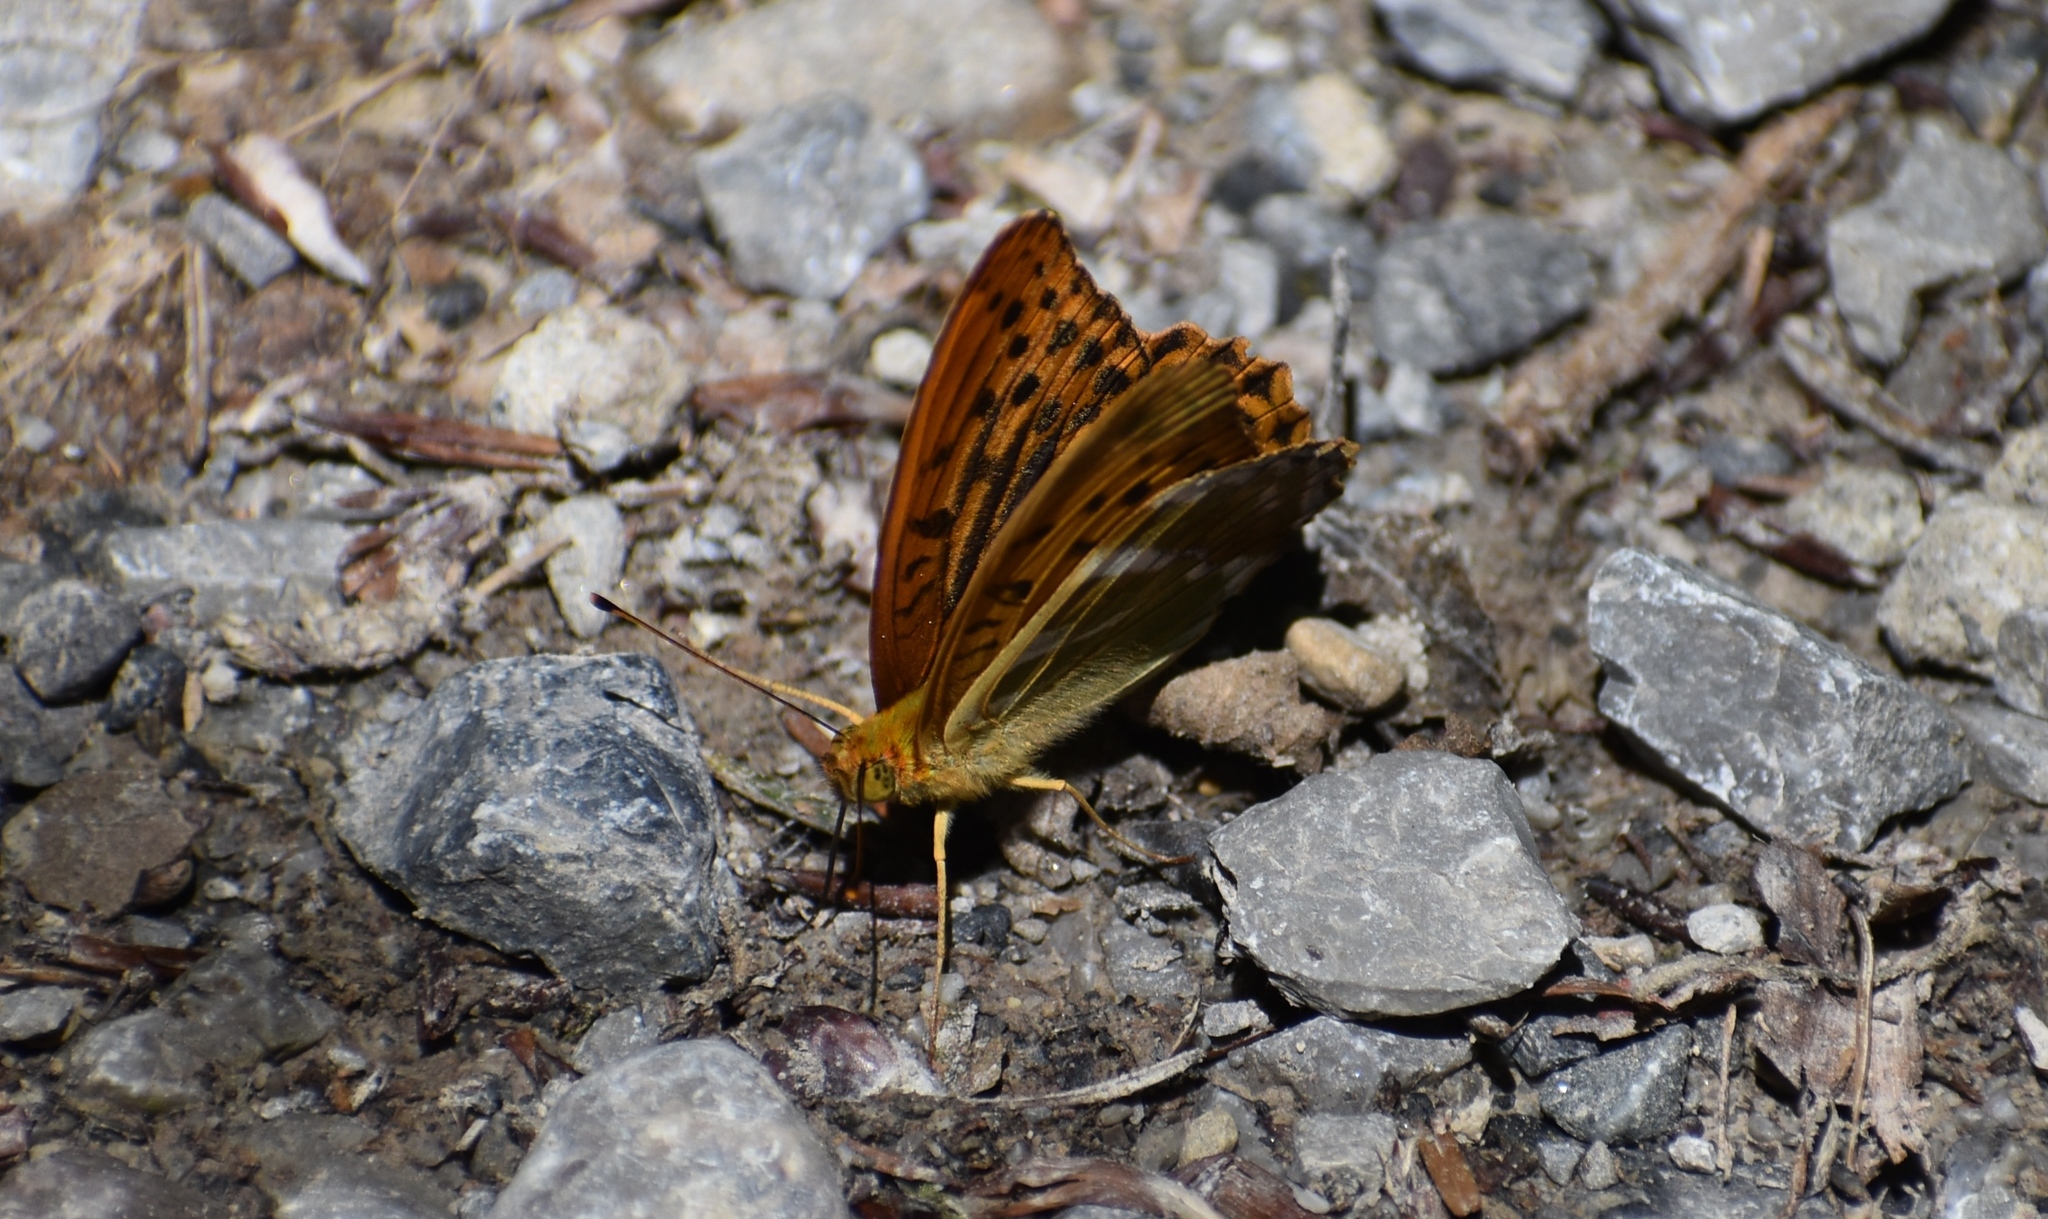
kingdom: Animalia
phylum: Arthropoda
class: Insecta
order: Lepidoptera
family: Nymphalidae
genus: Argynnis
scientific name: Argynnis paphia
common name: Silver-washed fritillary
